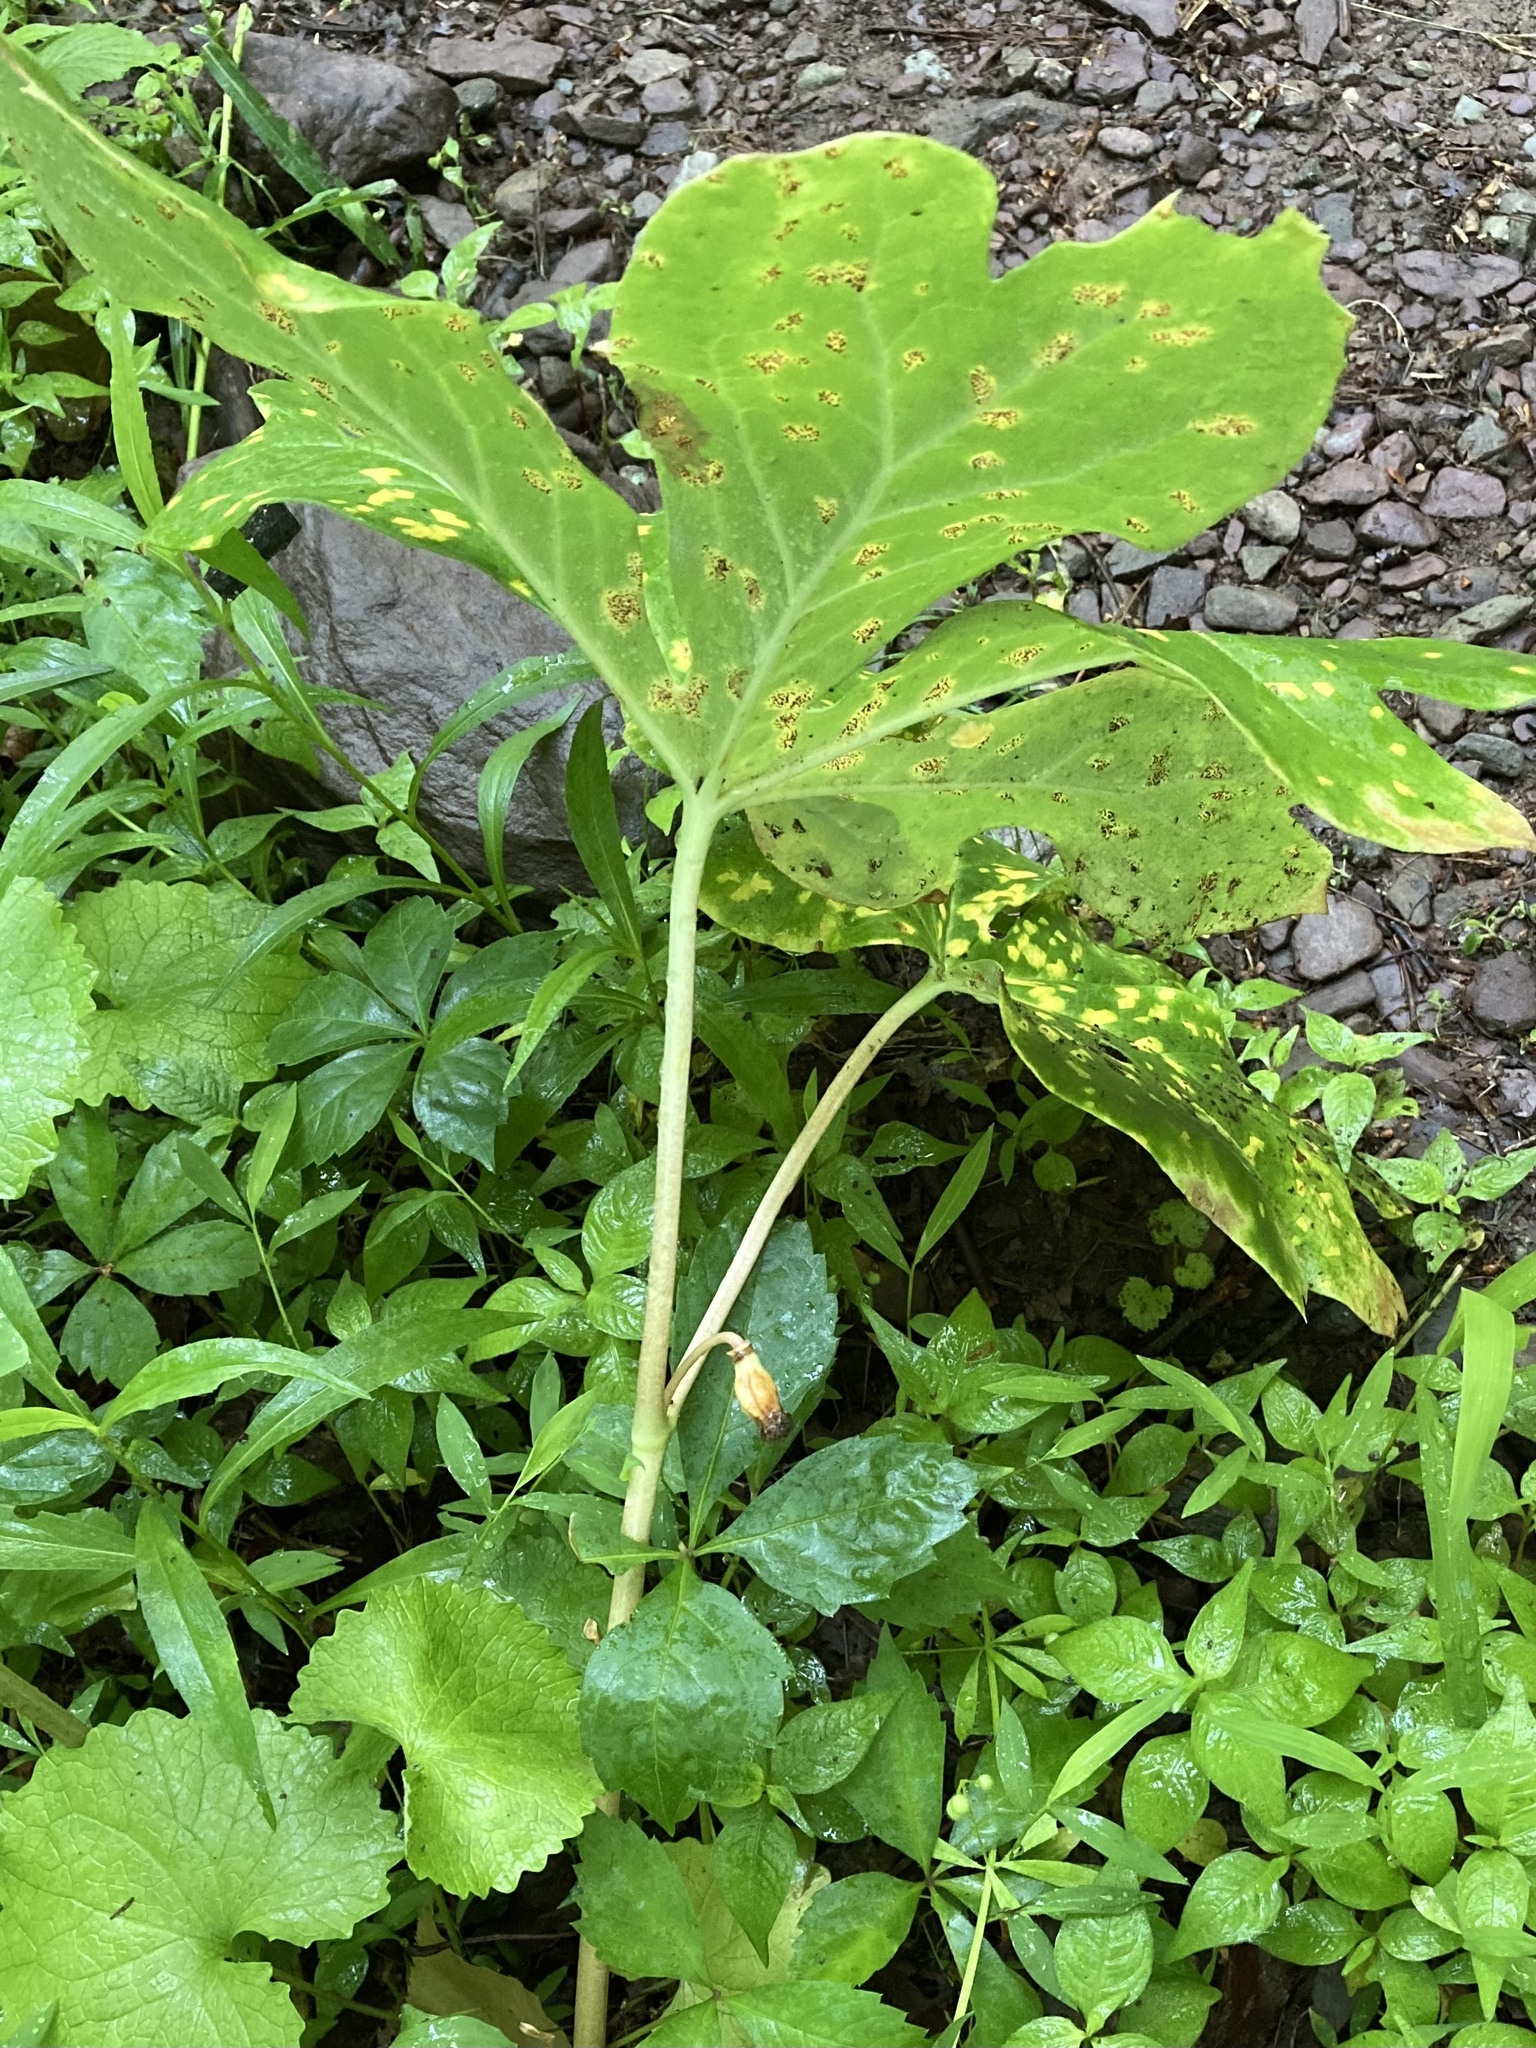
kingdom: Plantae
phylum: Tracheophyta
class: Magnoliopsida
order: Ranunculales
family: Berberidaceae
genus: Podophyllum
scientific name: Podophyllum peltatum
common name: Wild mandrake
